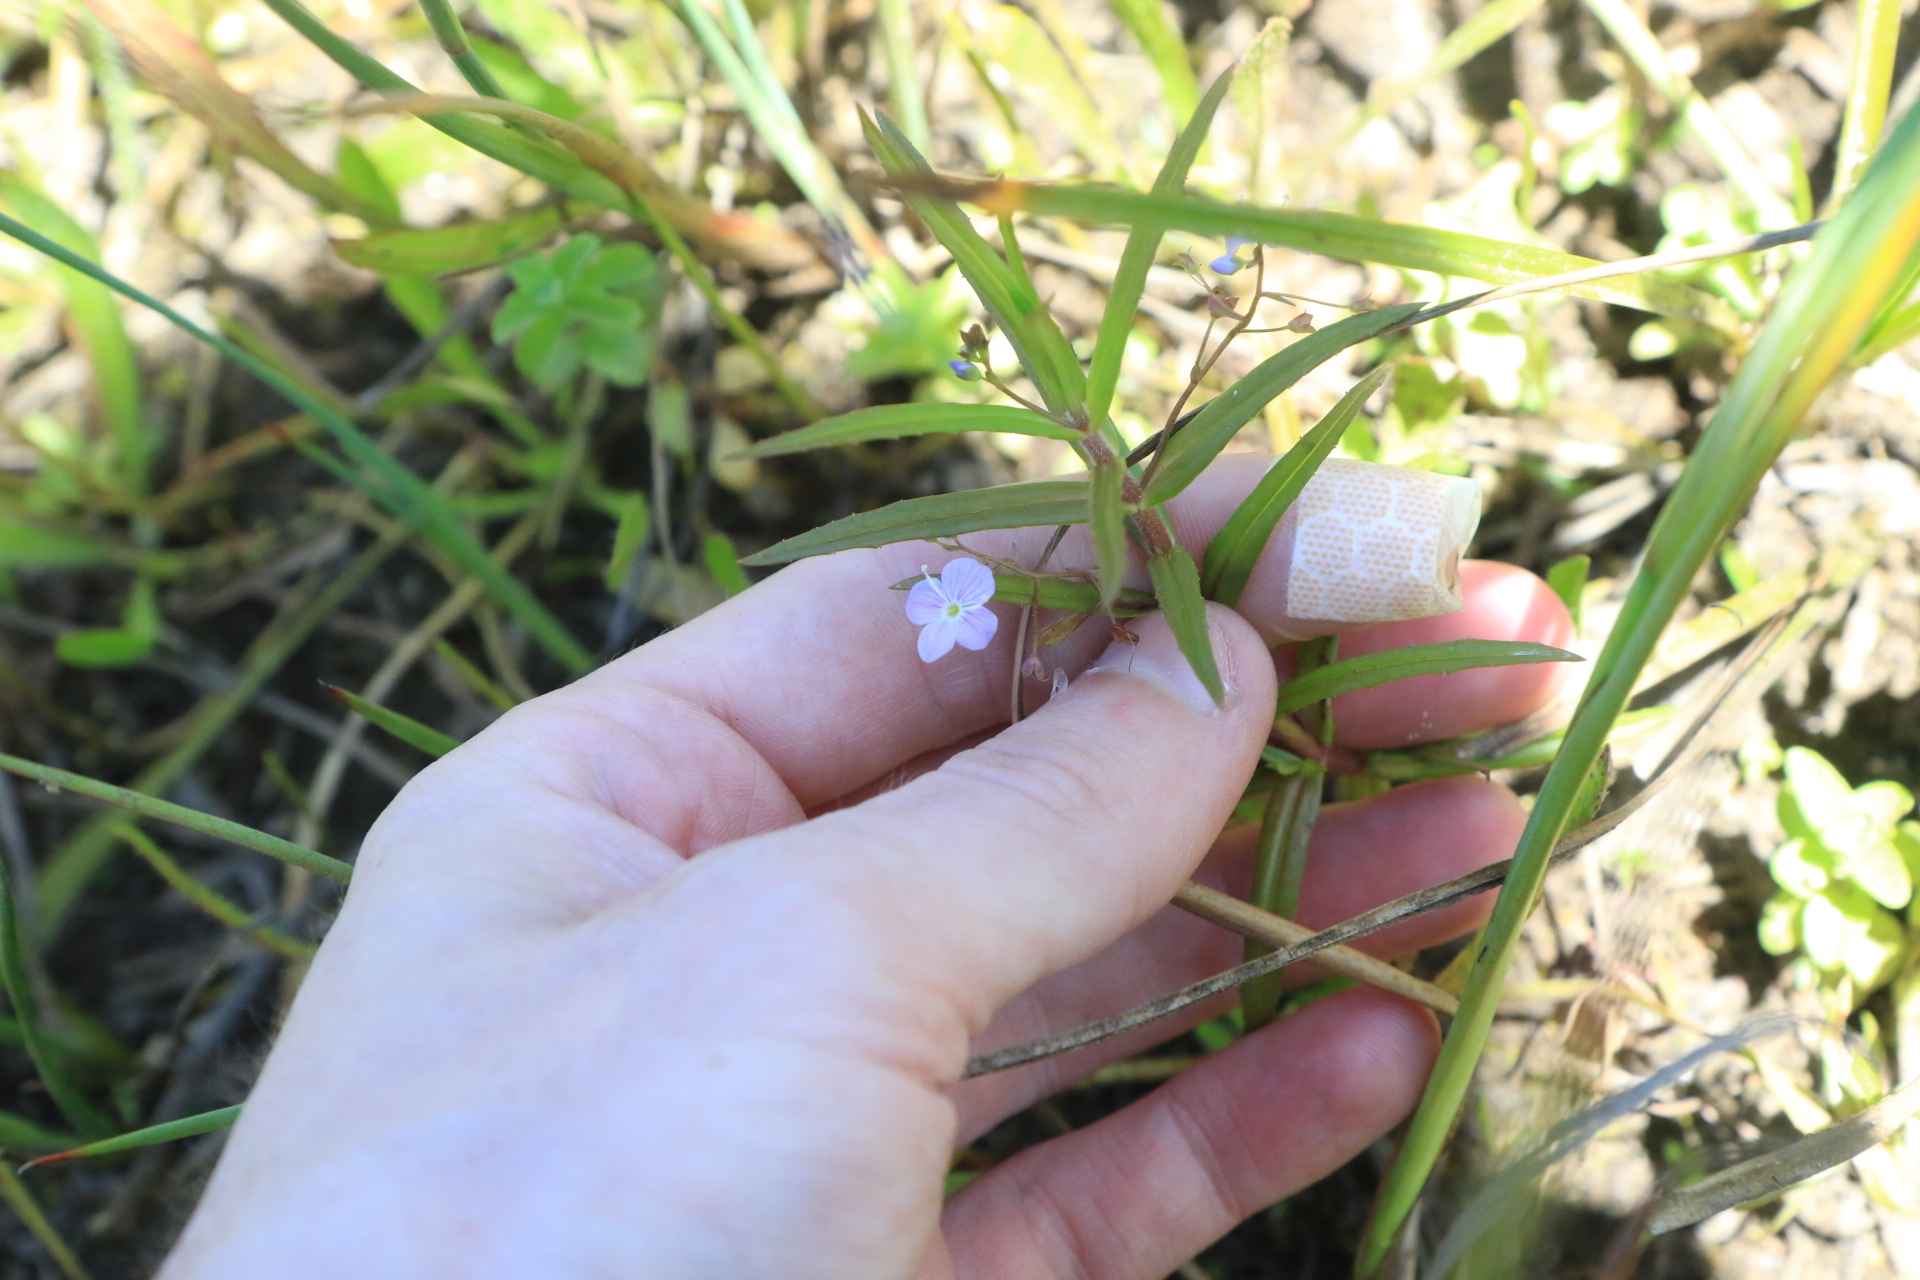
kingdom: Plantae
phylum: Tracheophyta
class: Magnoliopsida
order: Lamiales
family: Plantaginaceae
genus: Veronica
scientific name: Veronica scutellata
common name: Marsh speedwell
